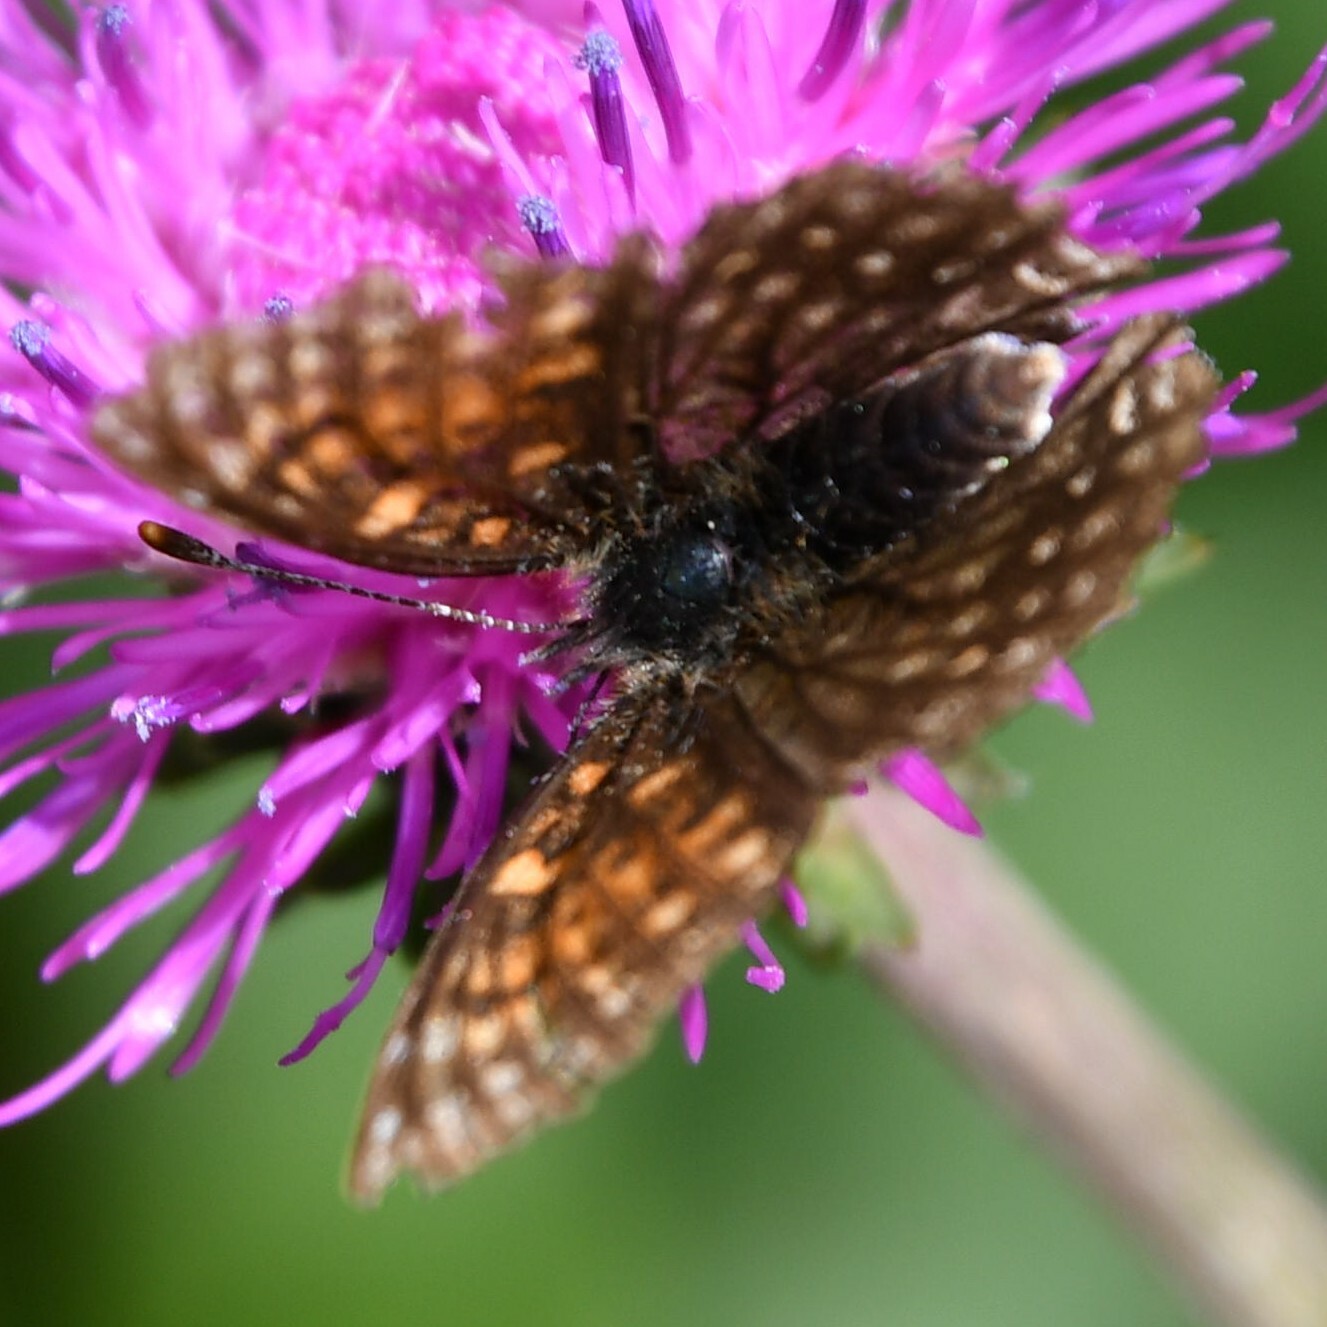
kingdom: Animalia
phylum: Arthropoda
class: Insecta
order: Lepidoptera
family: Nymphalidae
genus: Melitaea
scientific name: Melitaea diamina
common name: False heath fritillary
